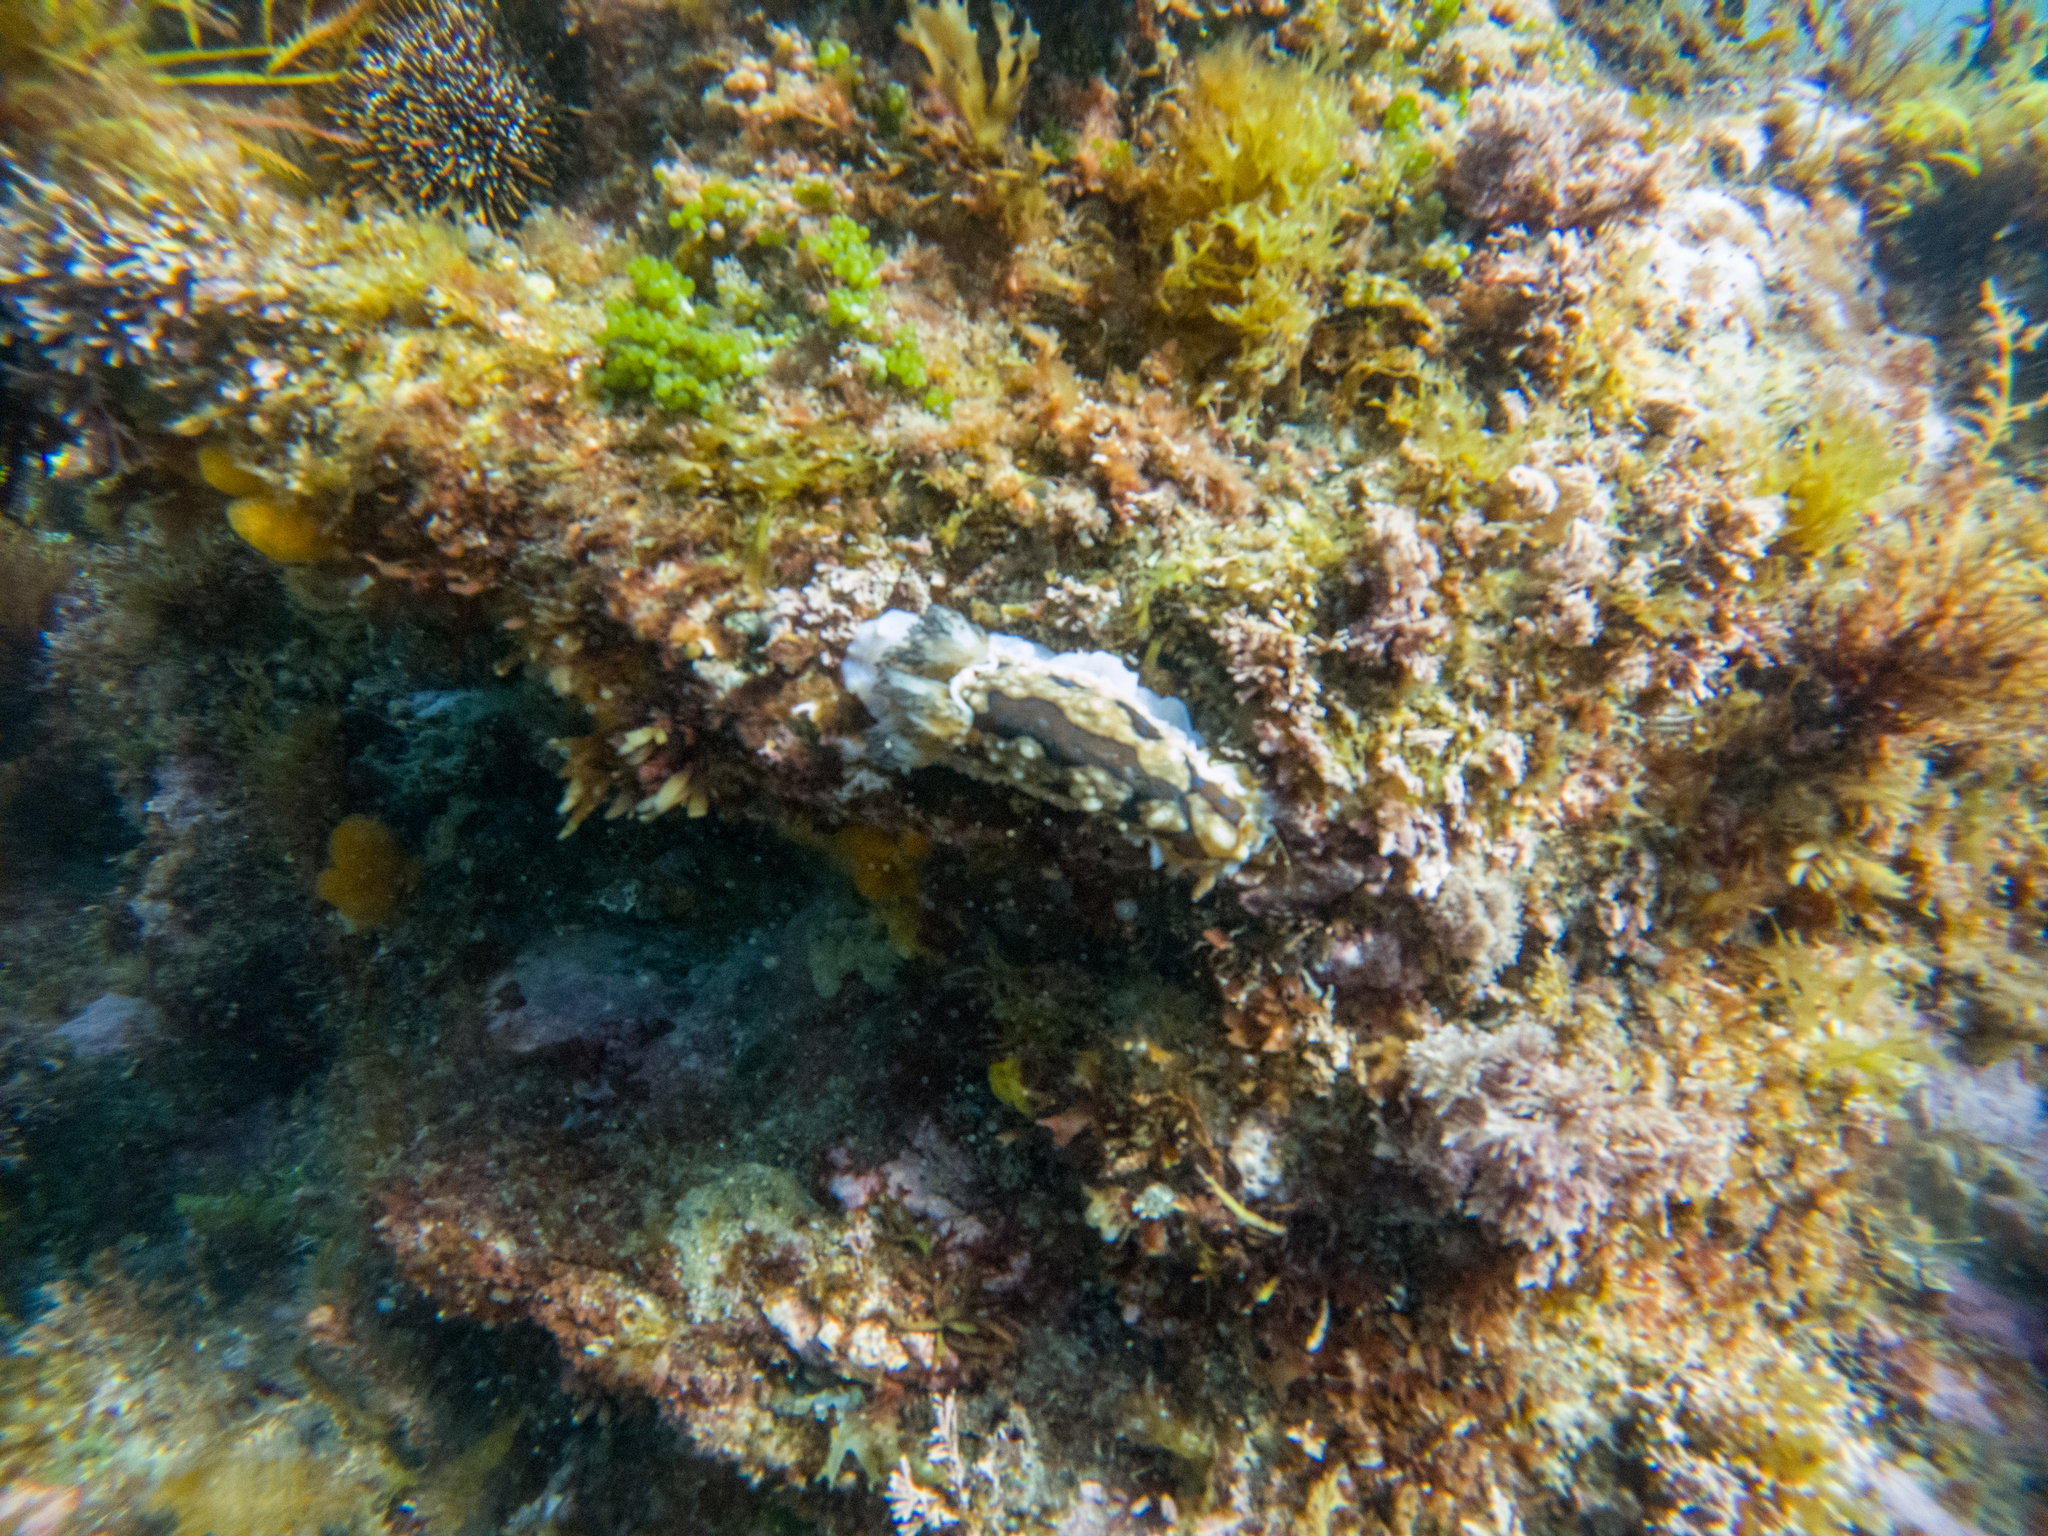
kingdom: Animalia
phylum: Mollusca
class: Gastropoda
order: Nudibranchia
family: Dendrodorididae
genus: Dendrodoris
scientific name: Dendrodoris krusensternii
